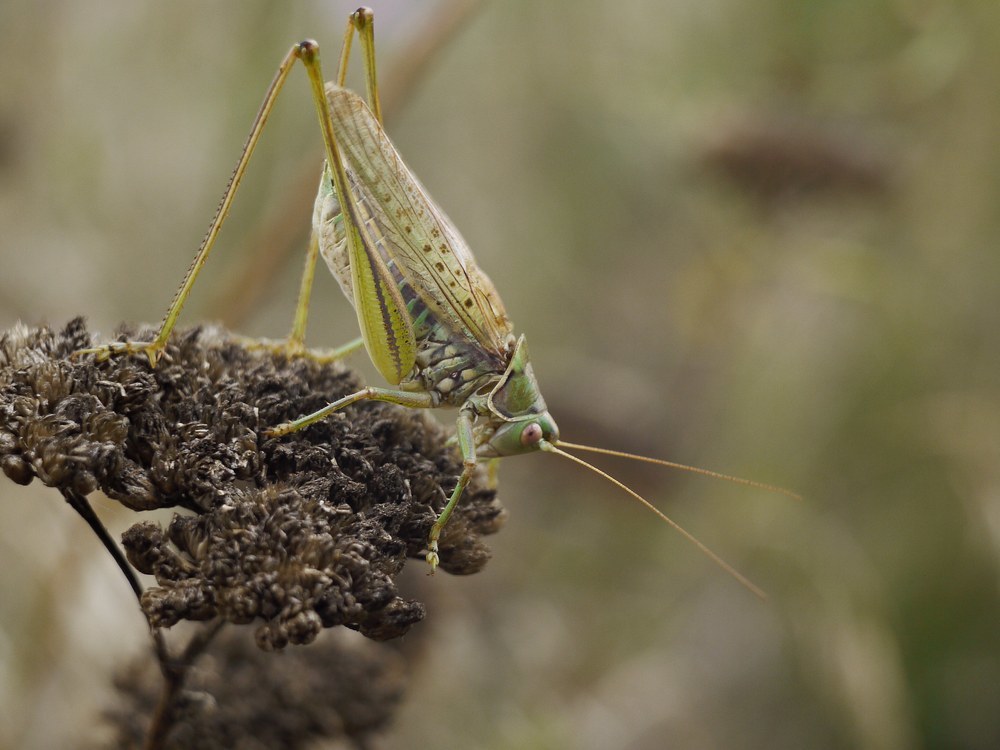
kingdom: Animalia
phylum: Arthropoda
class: Insecta
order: Orthoptera
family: Tettigoniidae
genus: Gampsocleis
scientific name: Gampsocleis glabra
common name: Heath bushcricket
